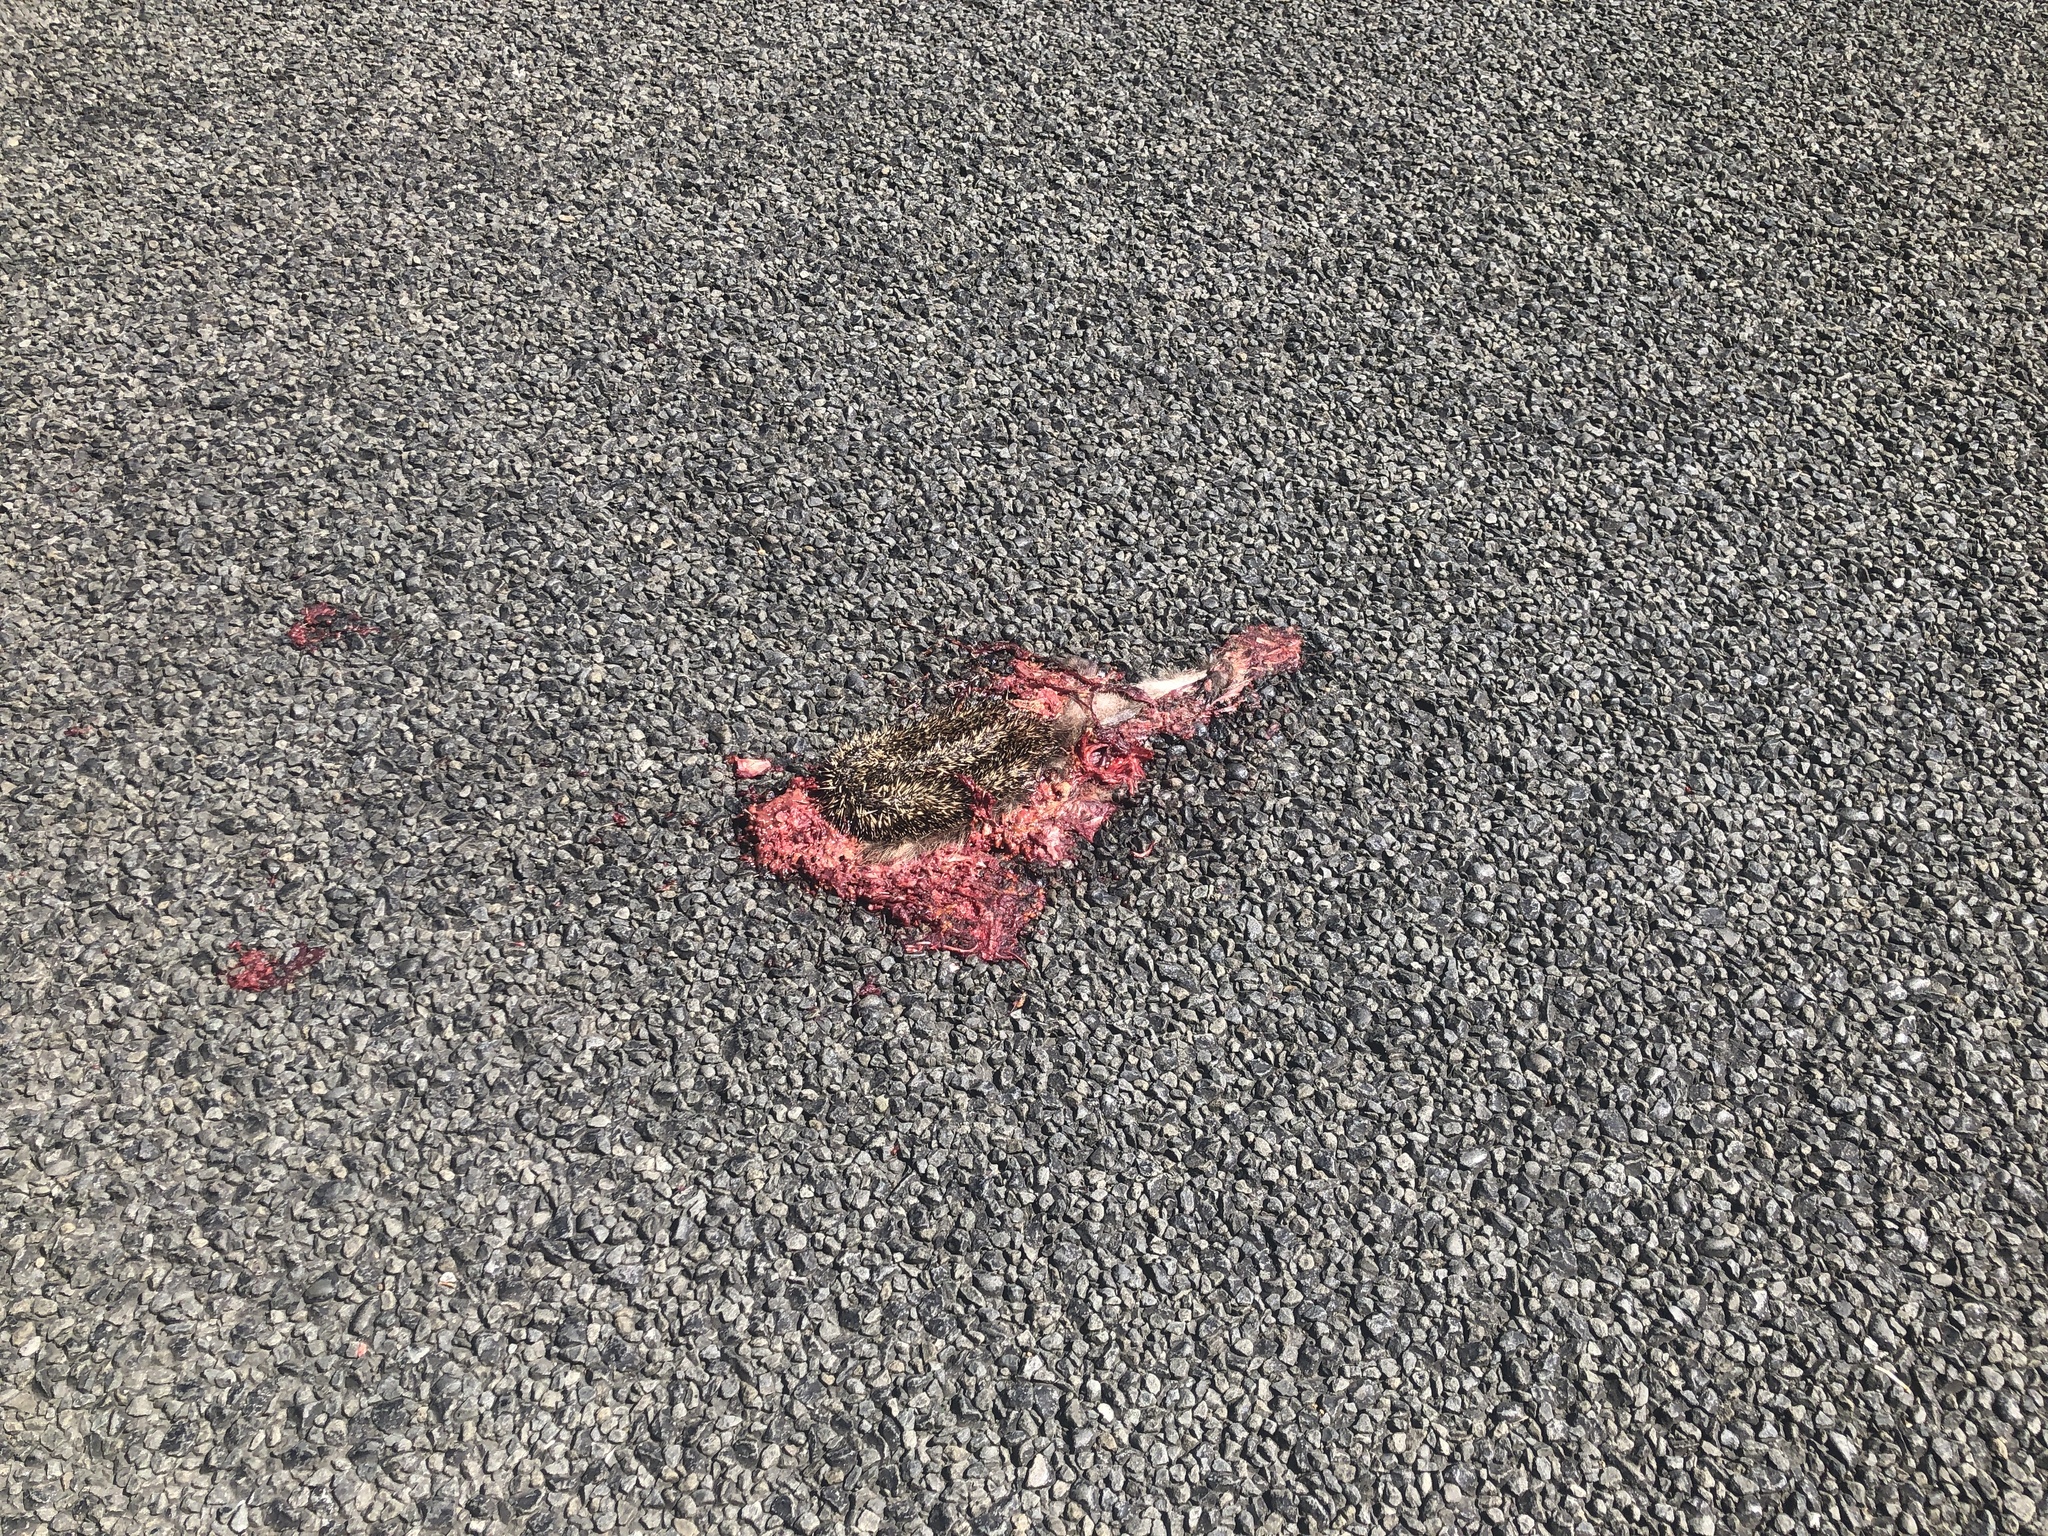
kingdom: Animalia
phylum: Chordata
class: Mammalia
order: Erinaceomorpha
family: Erinaceidae
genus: Erinaceus
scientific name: Erinaceus europaeus
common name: West european hedgehog
